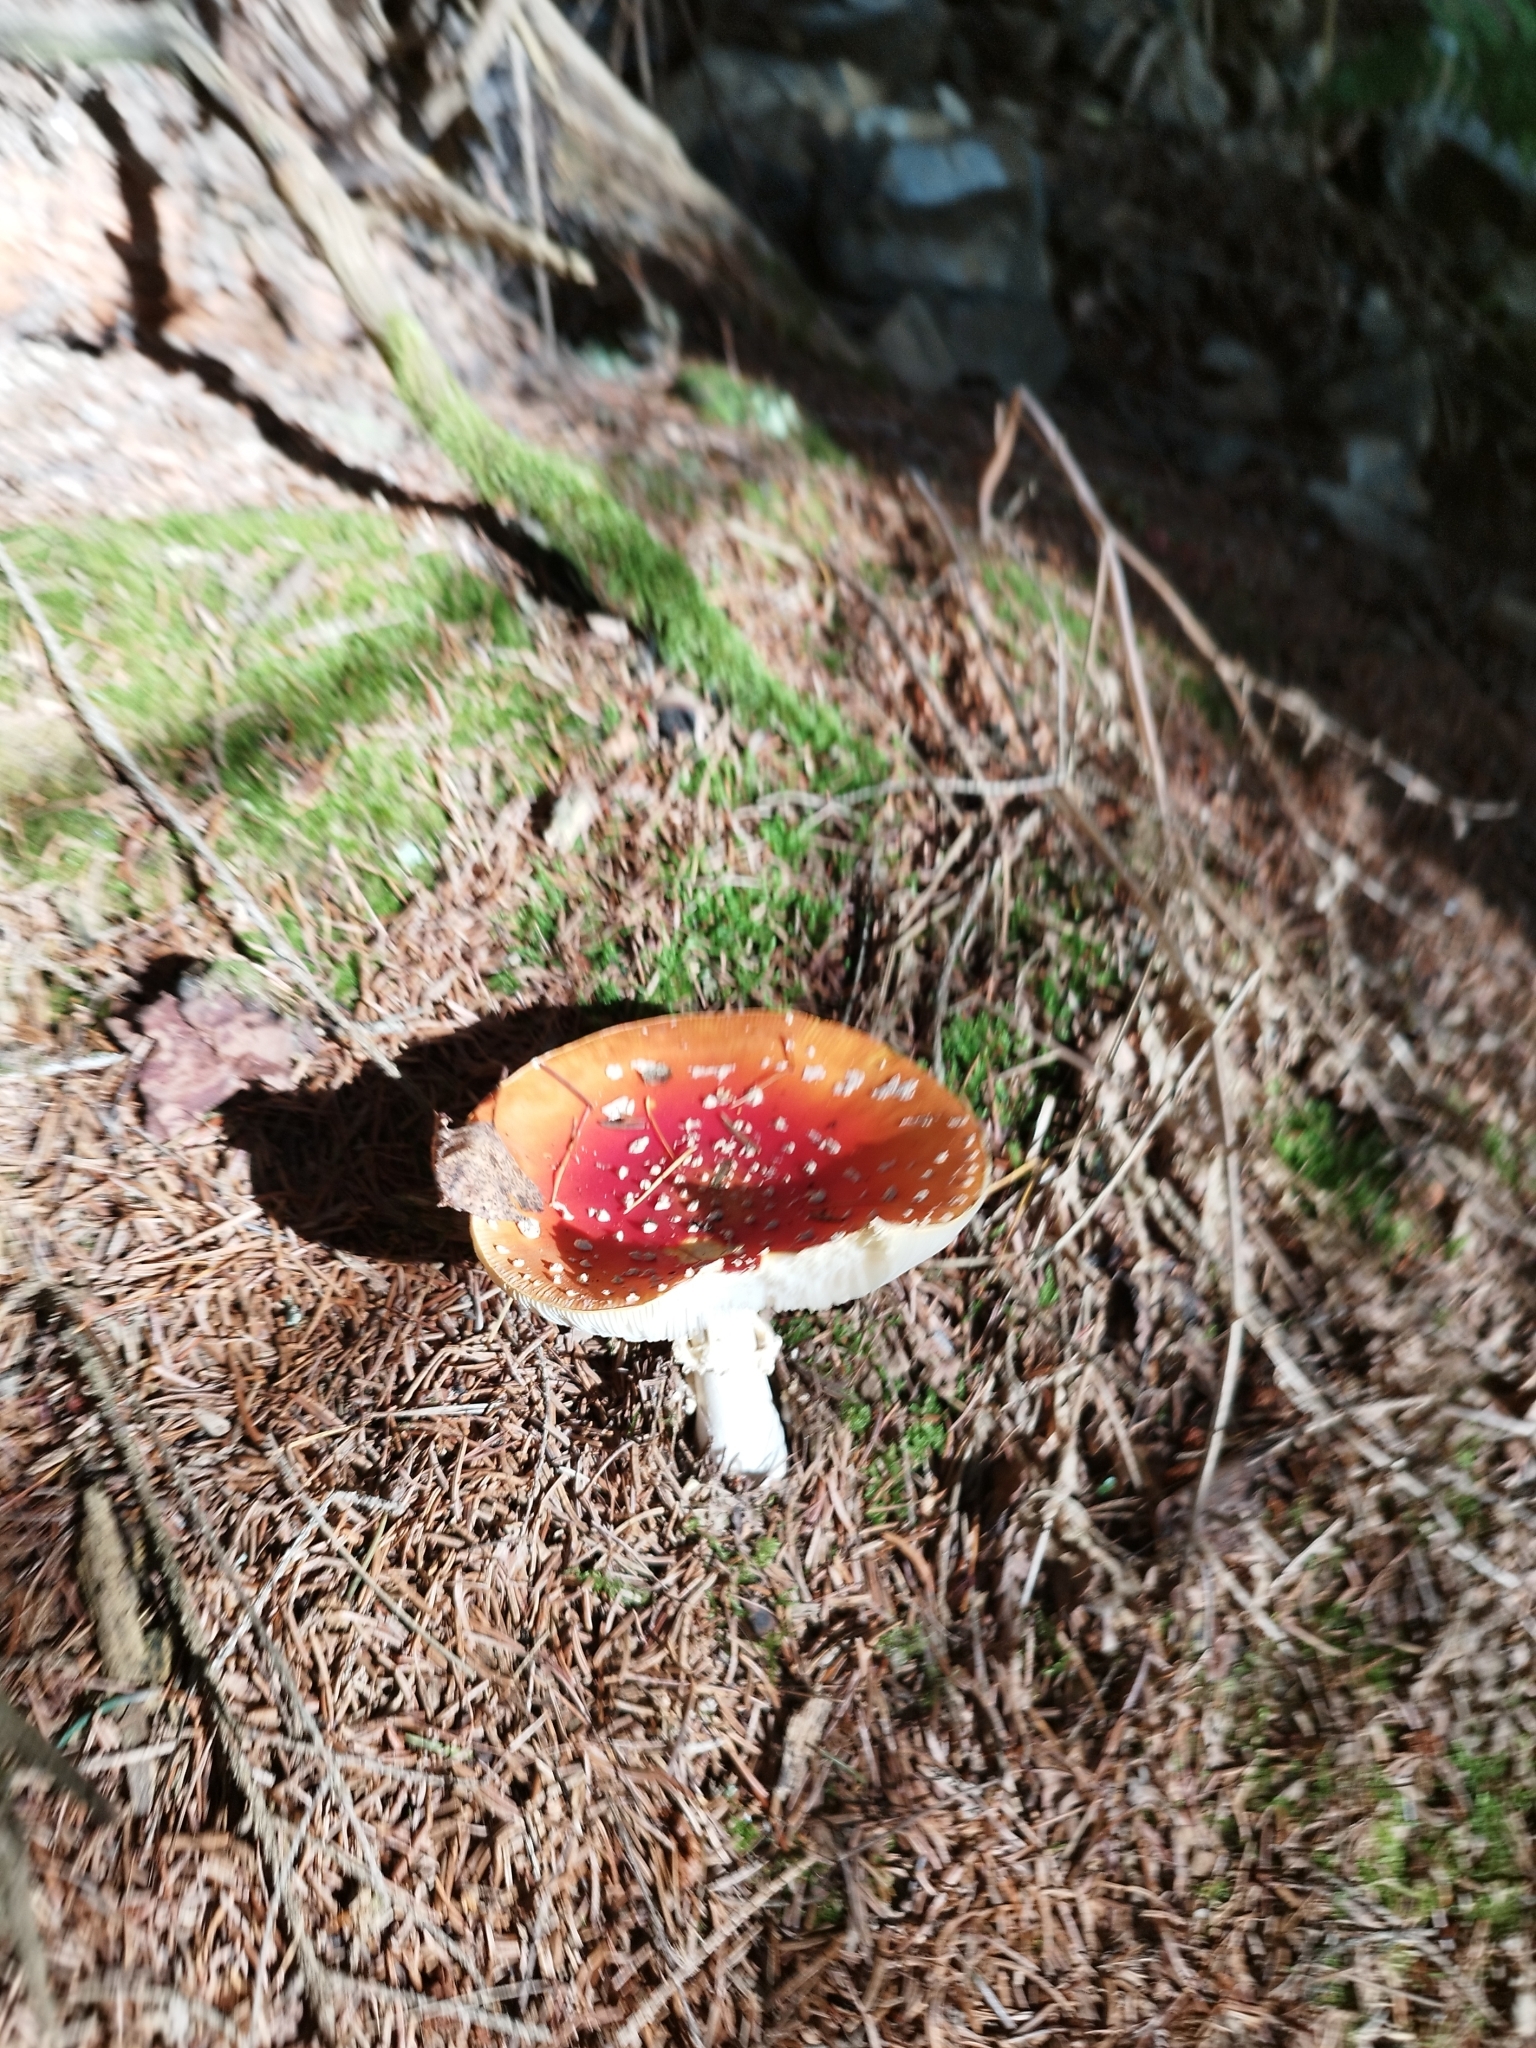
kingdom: Fungi
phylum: Basidiomycota
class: Agaricomycetes
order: Agaricales
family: Amanitaceae
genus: Amanita
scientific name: Amanita muscaria
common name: Fly agaric
